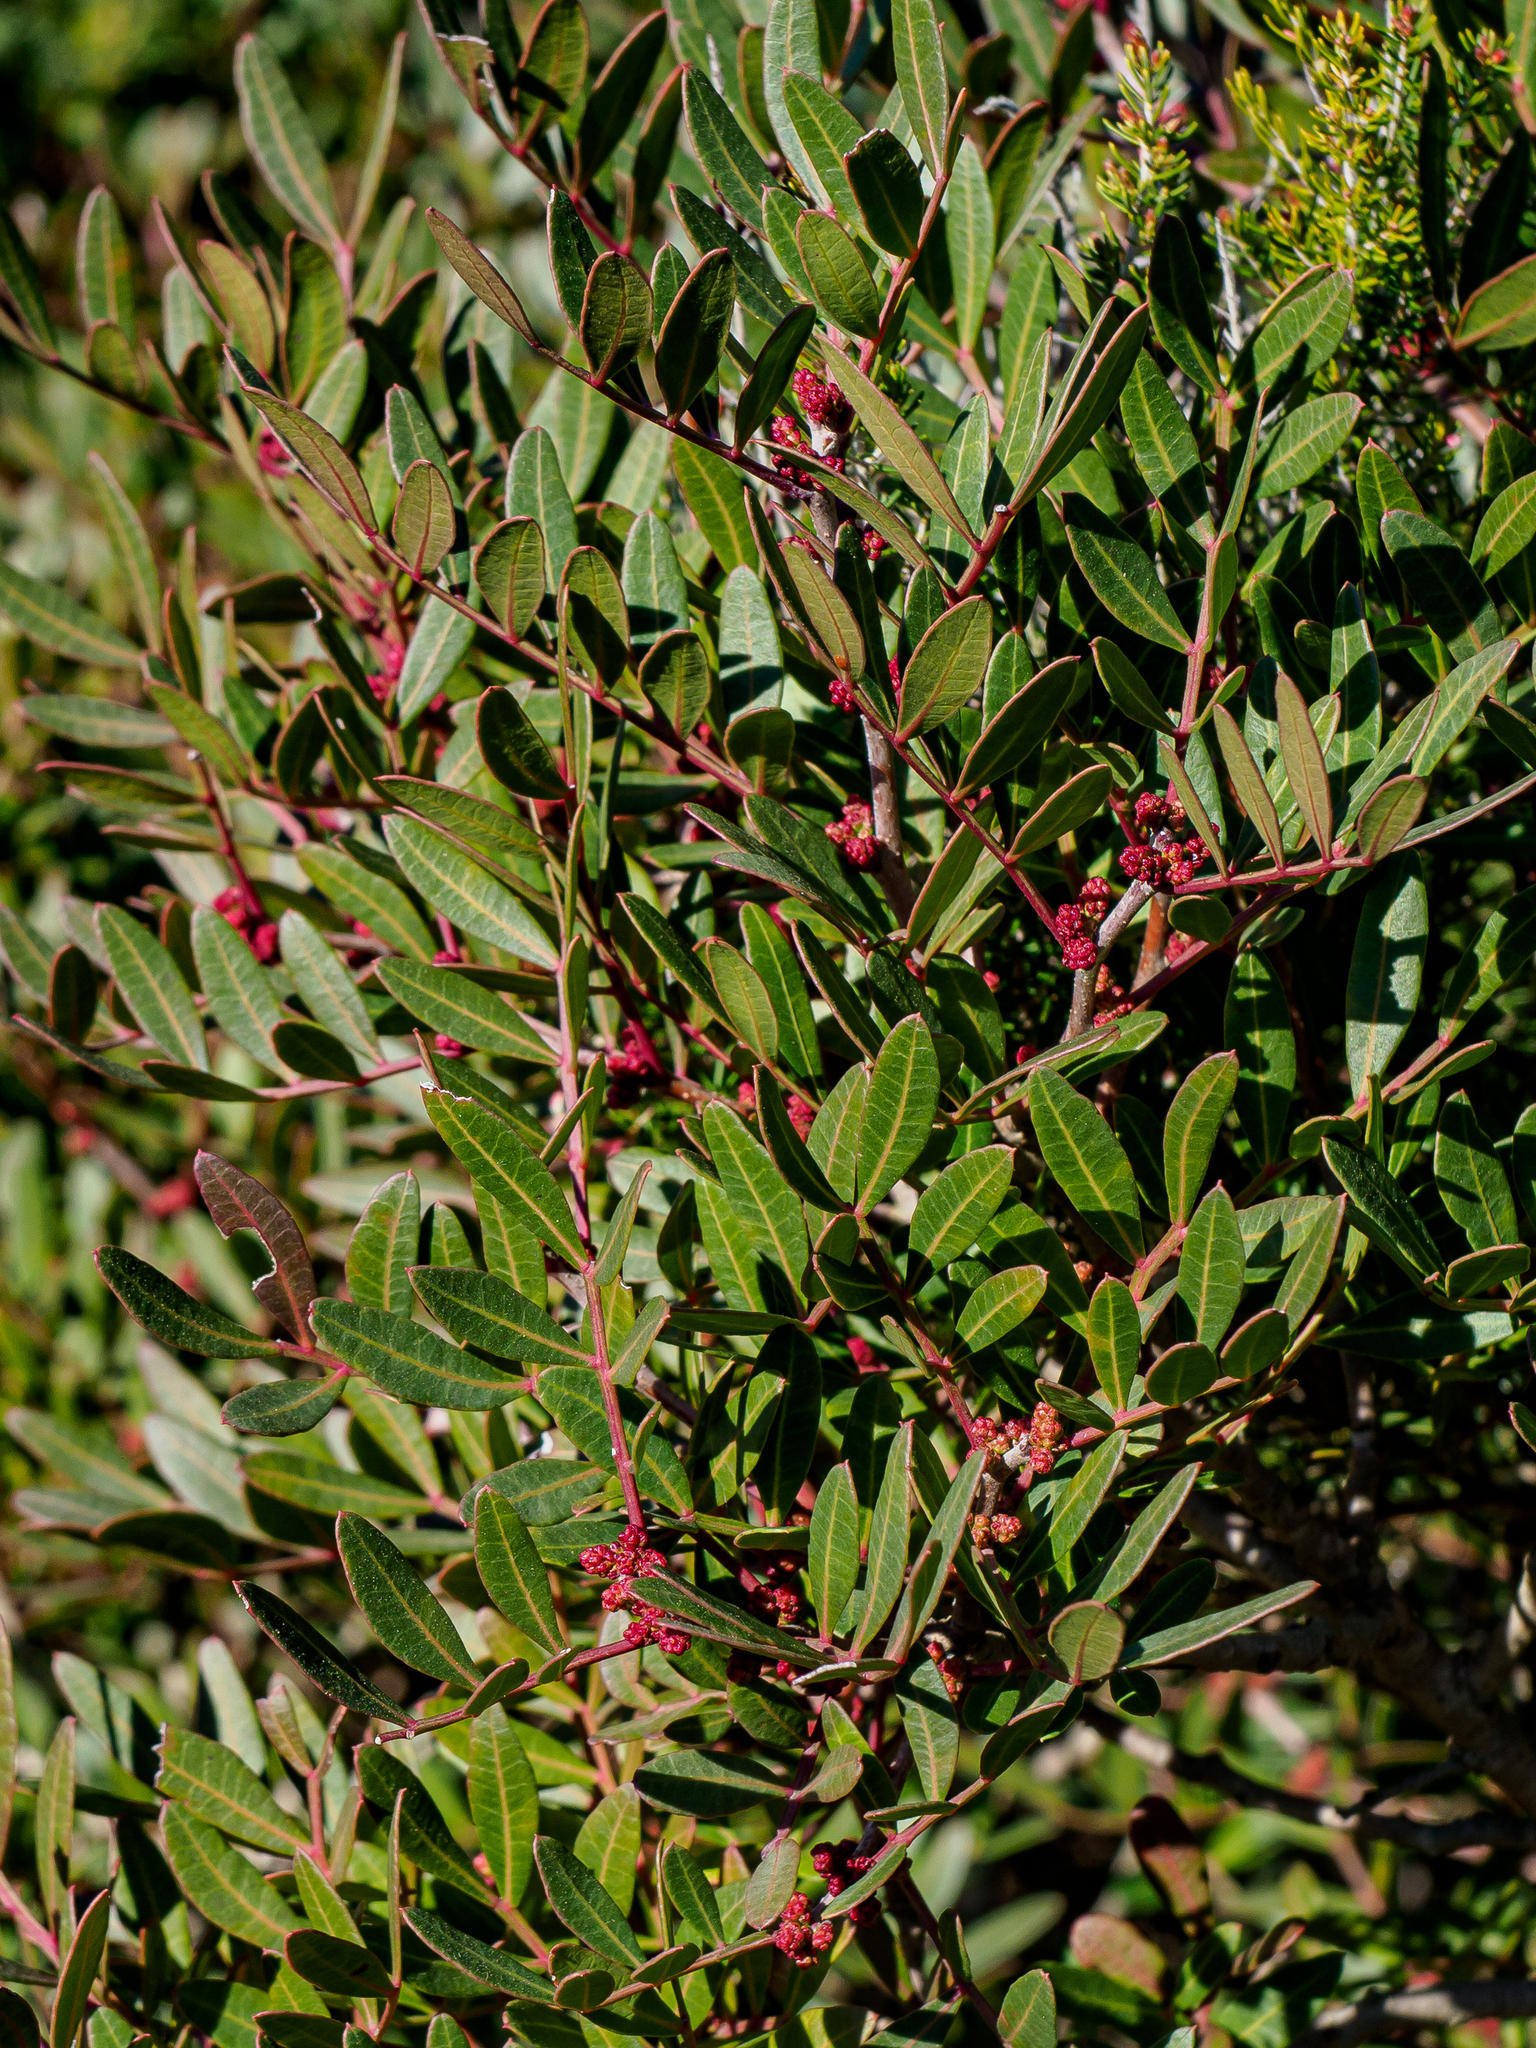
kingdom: Plantae
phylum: Tracheophyta
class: Magnoliopsida
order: Sapindales
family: Anacardiaceae
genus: Pistacia
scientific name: Pistacia lentiscus
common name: Lentisk
